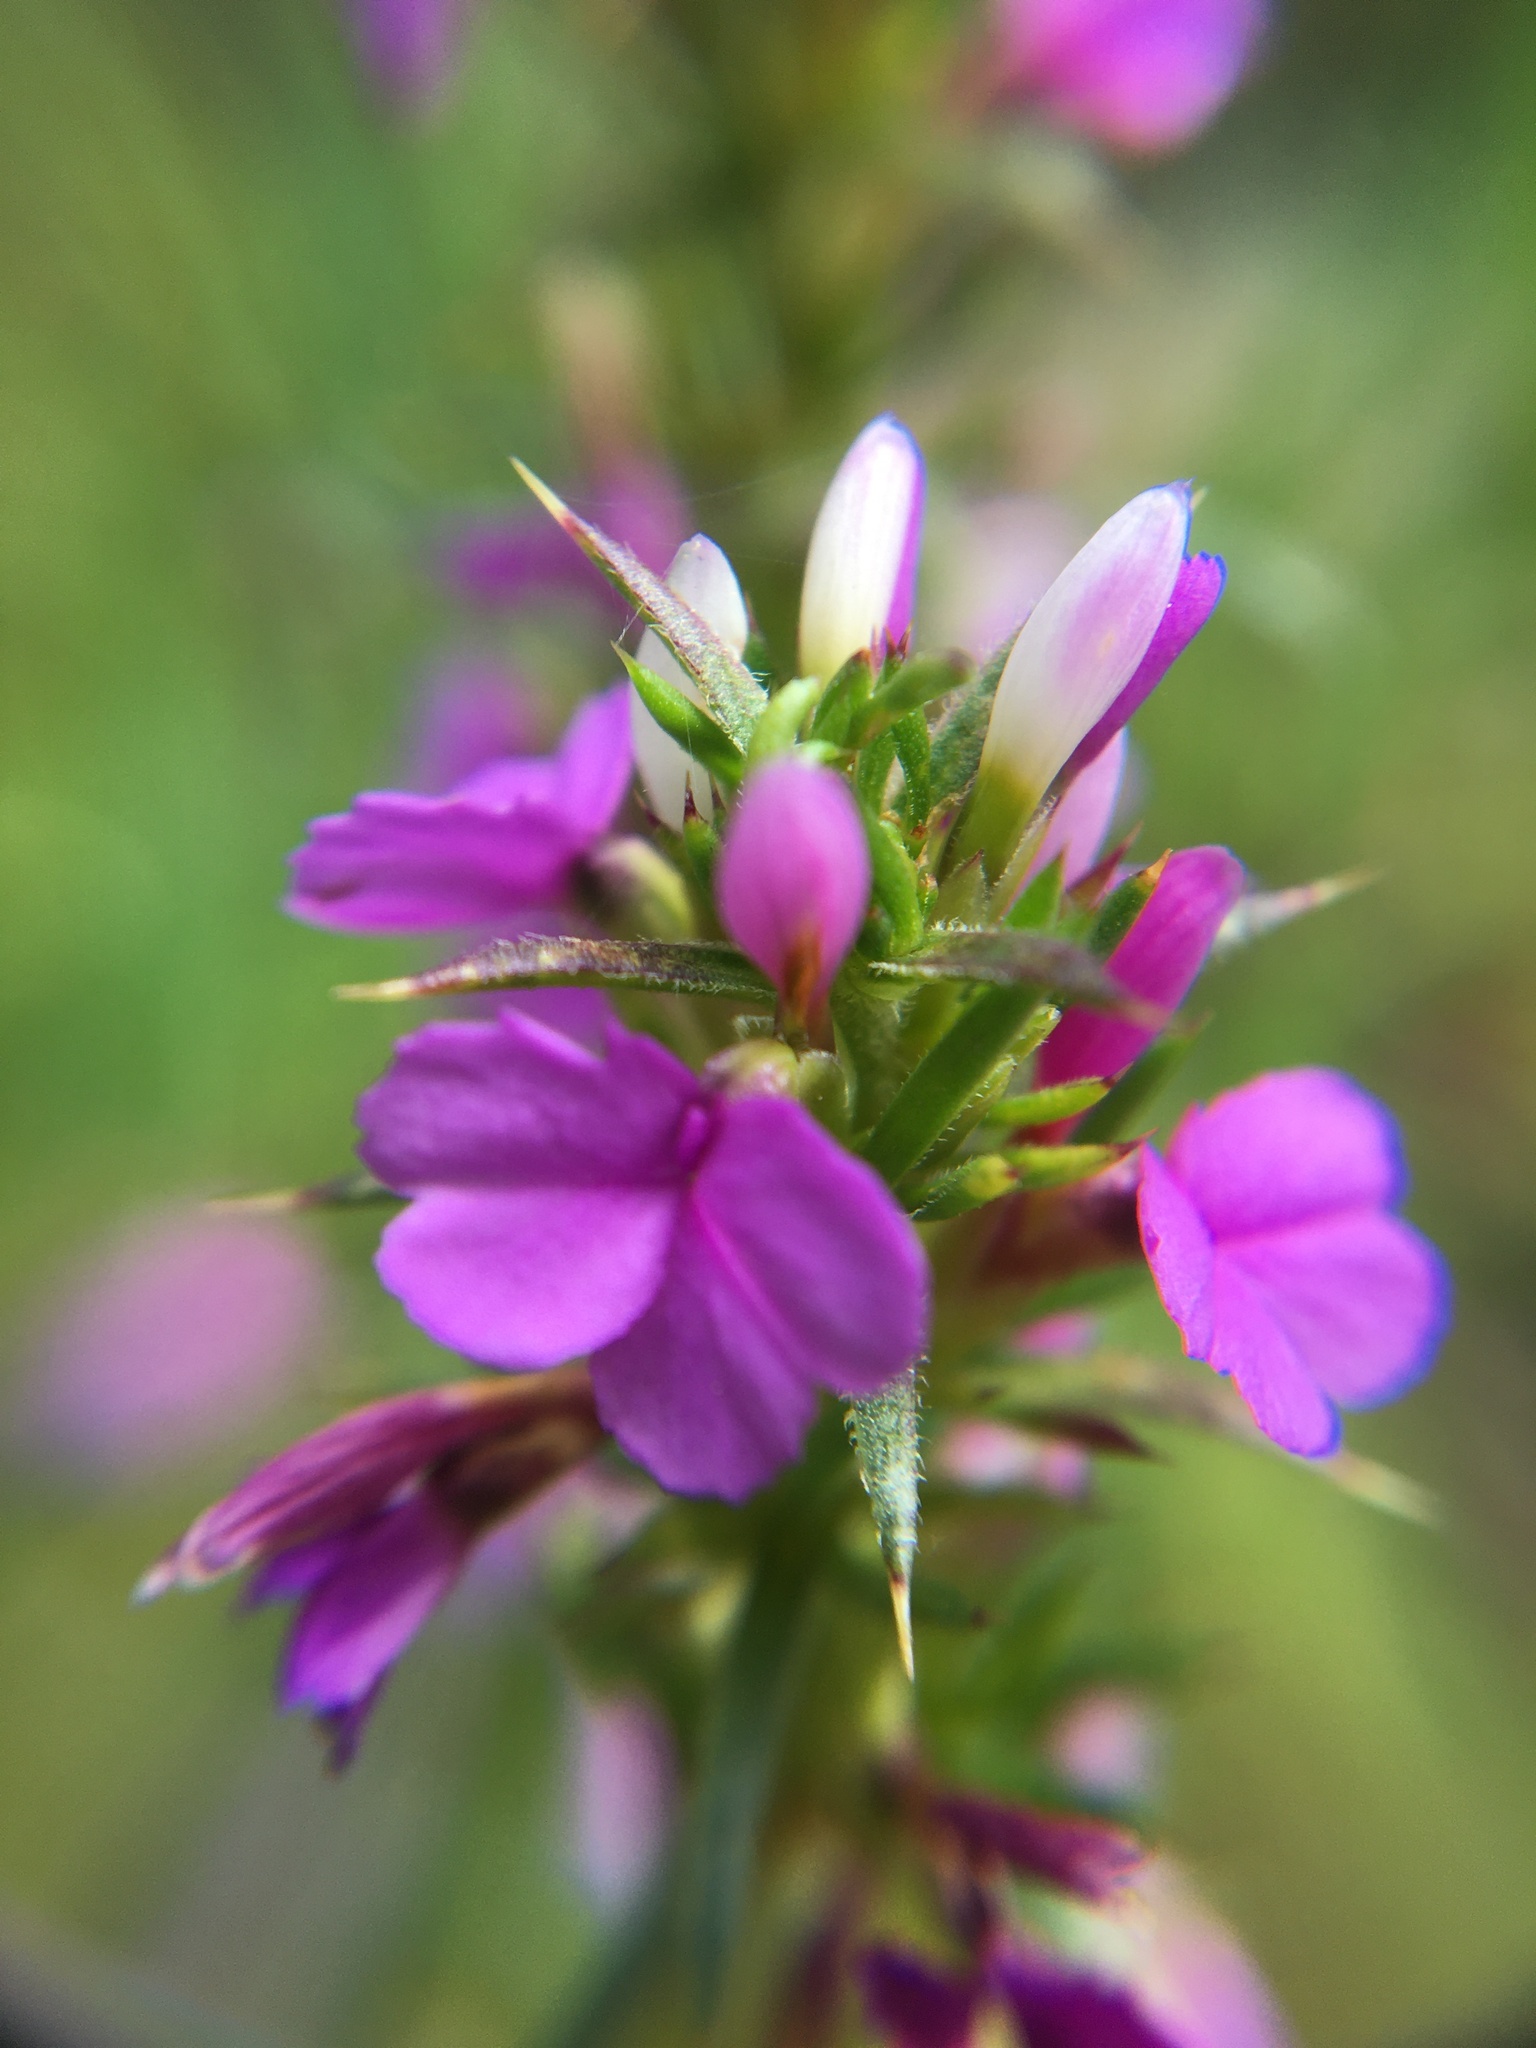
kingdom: Plantae
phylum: Tracheophyta
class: Magnoliopsida
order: Fabales
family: Polygalaceae
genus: Muraltia
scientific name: Muraltia heisteria
